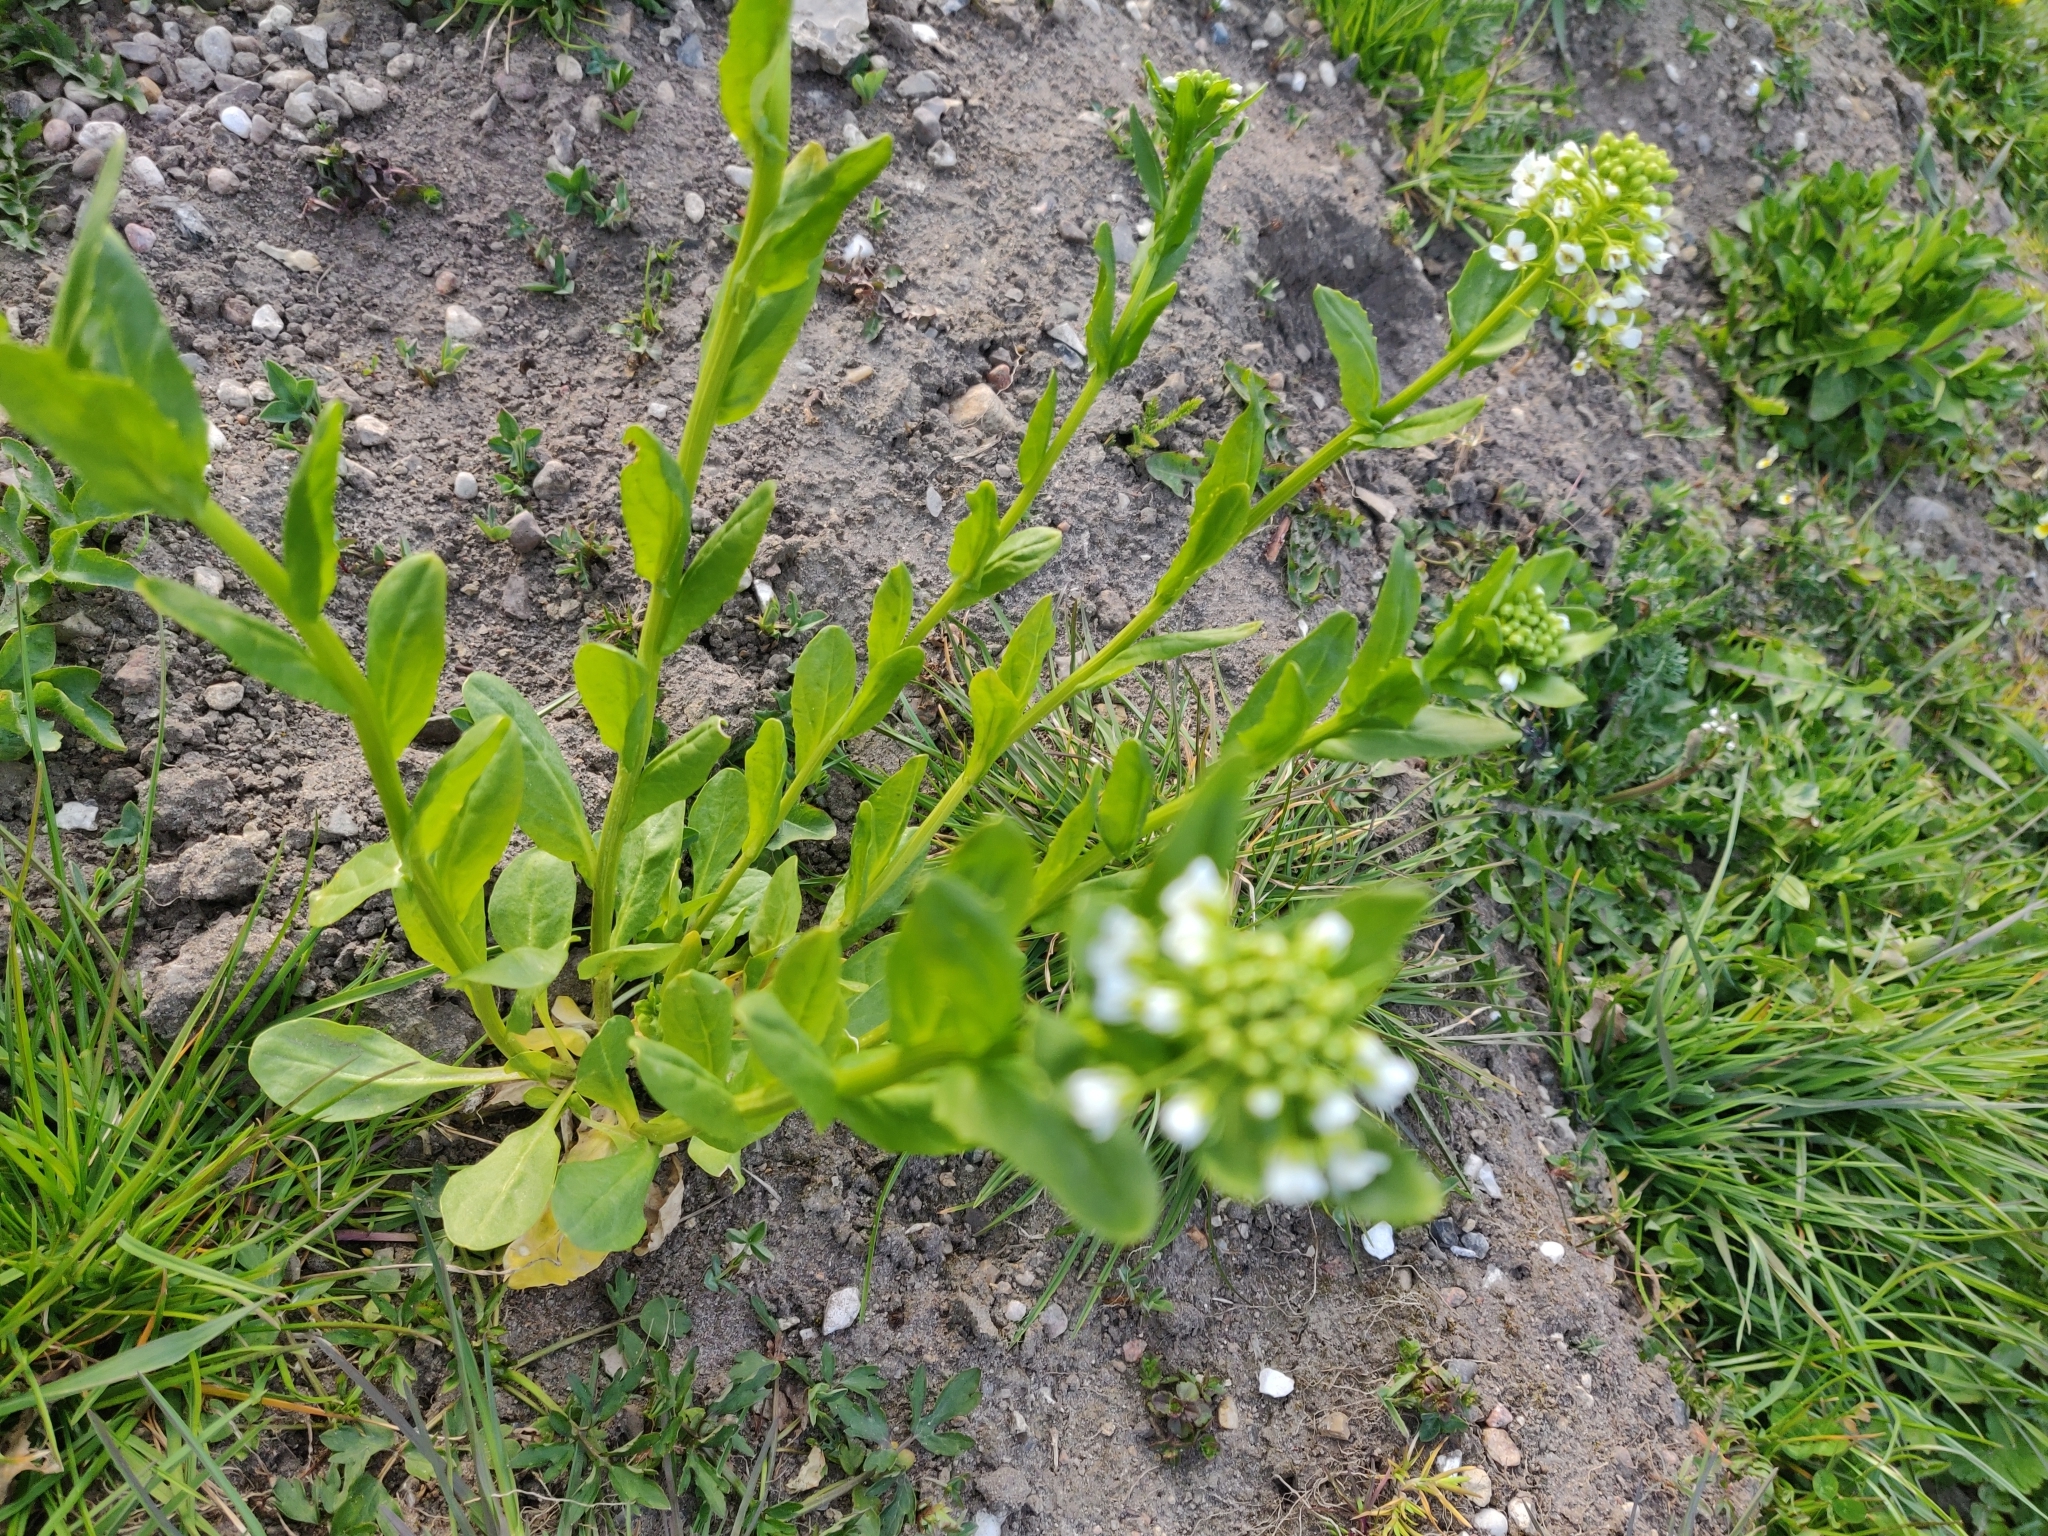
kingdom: Plantae
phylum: Tracheophyta
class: Magnoliopsida
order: Brassicales
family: Brassicaceae
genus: Thlaspi
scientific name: Thlaspi arvense
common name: Field pennycress
